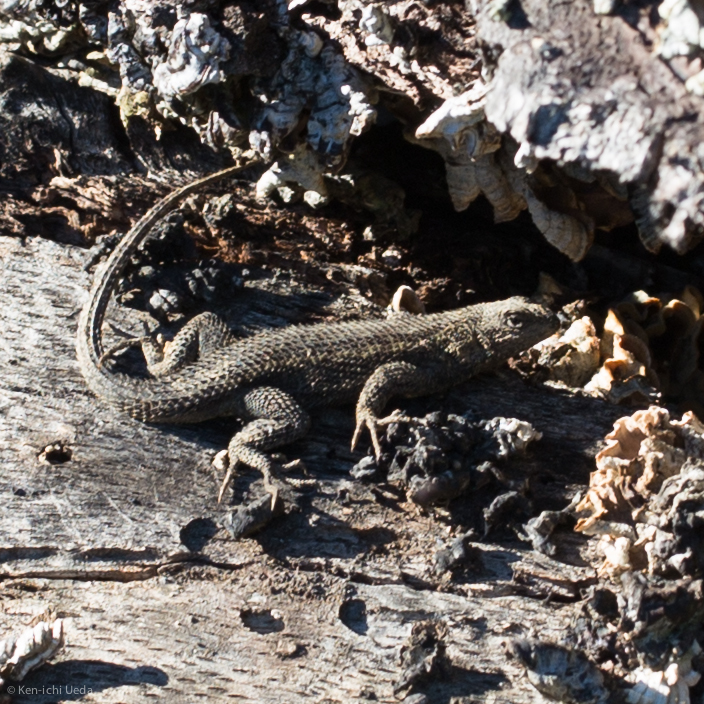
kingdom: Animalia
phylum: Chordata
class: Squamata
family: Phrynosomatidae
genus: Sceloporus
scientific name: Sceloporus occidentalis
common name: Western fence lizard
